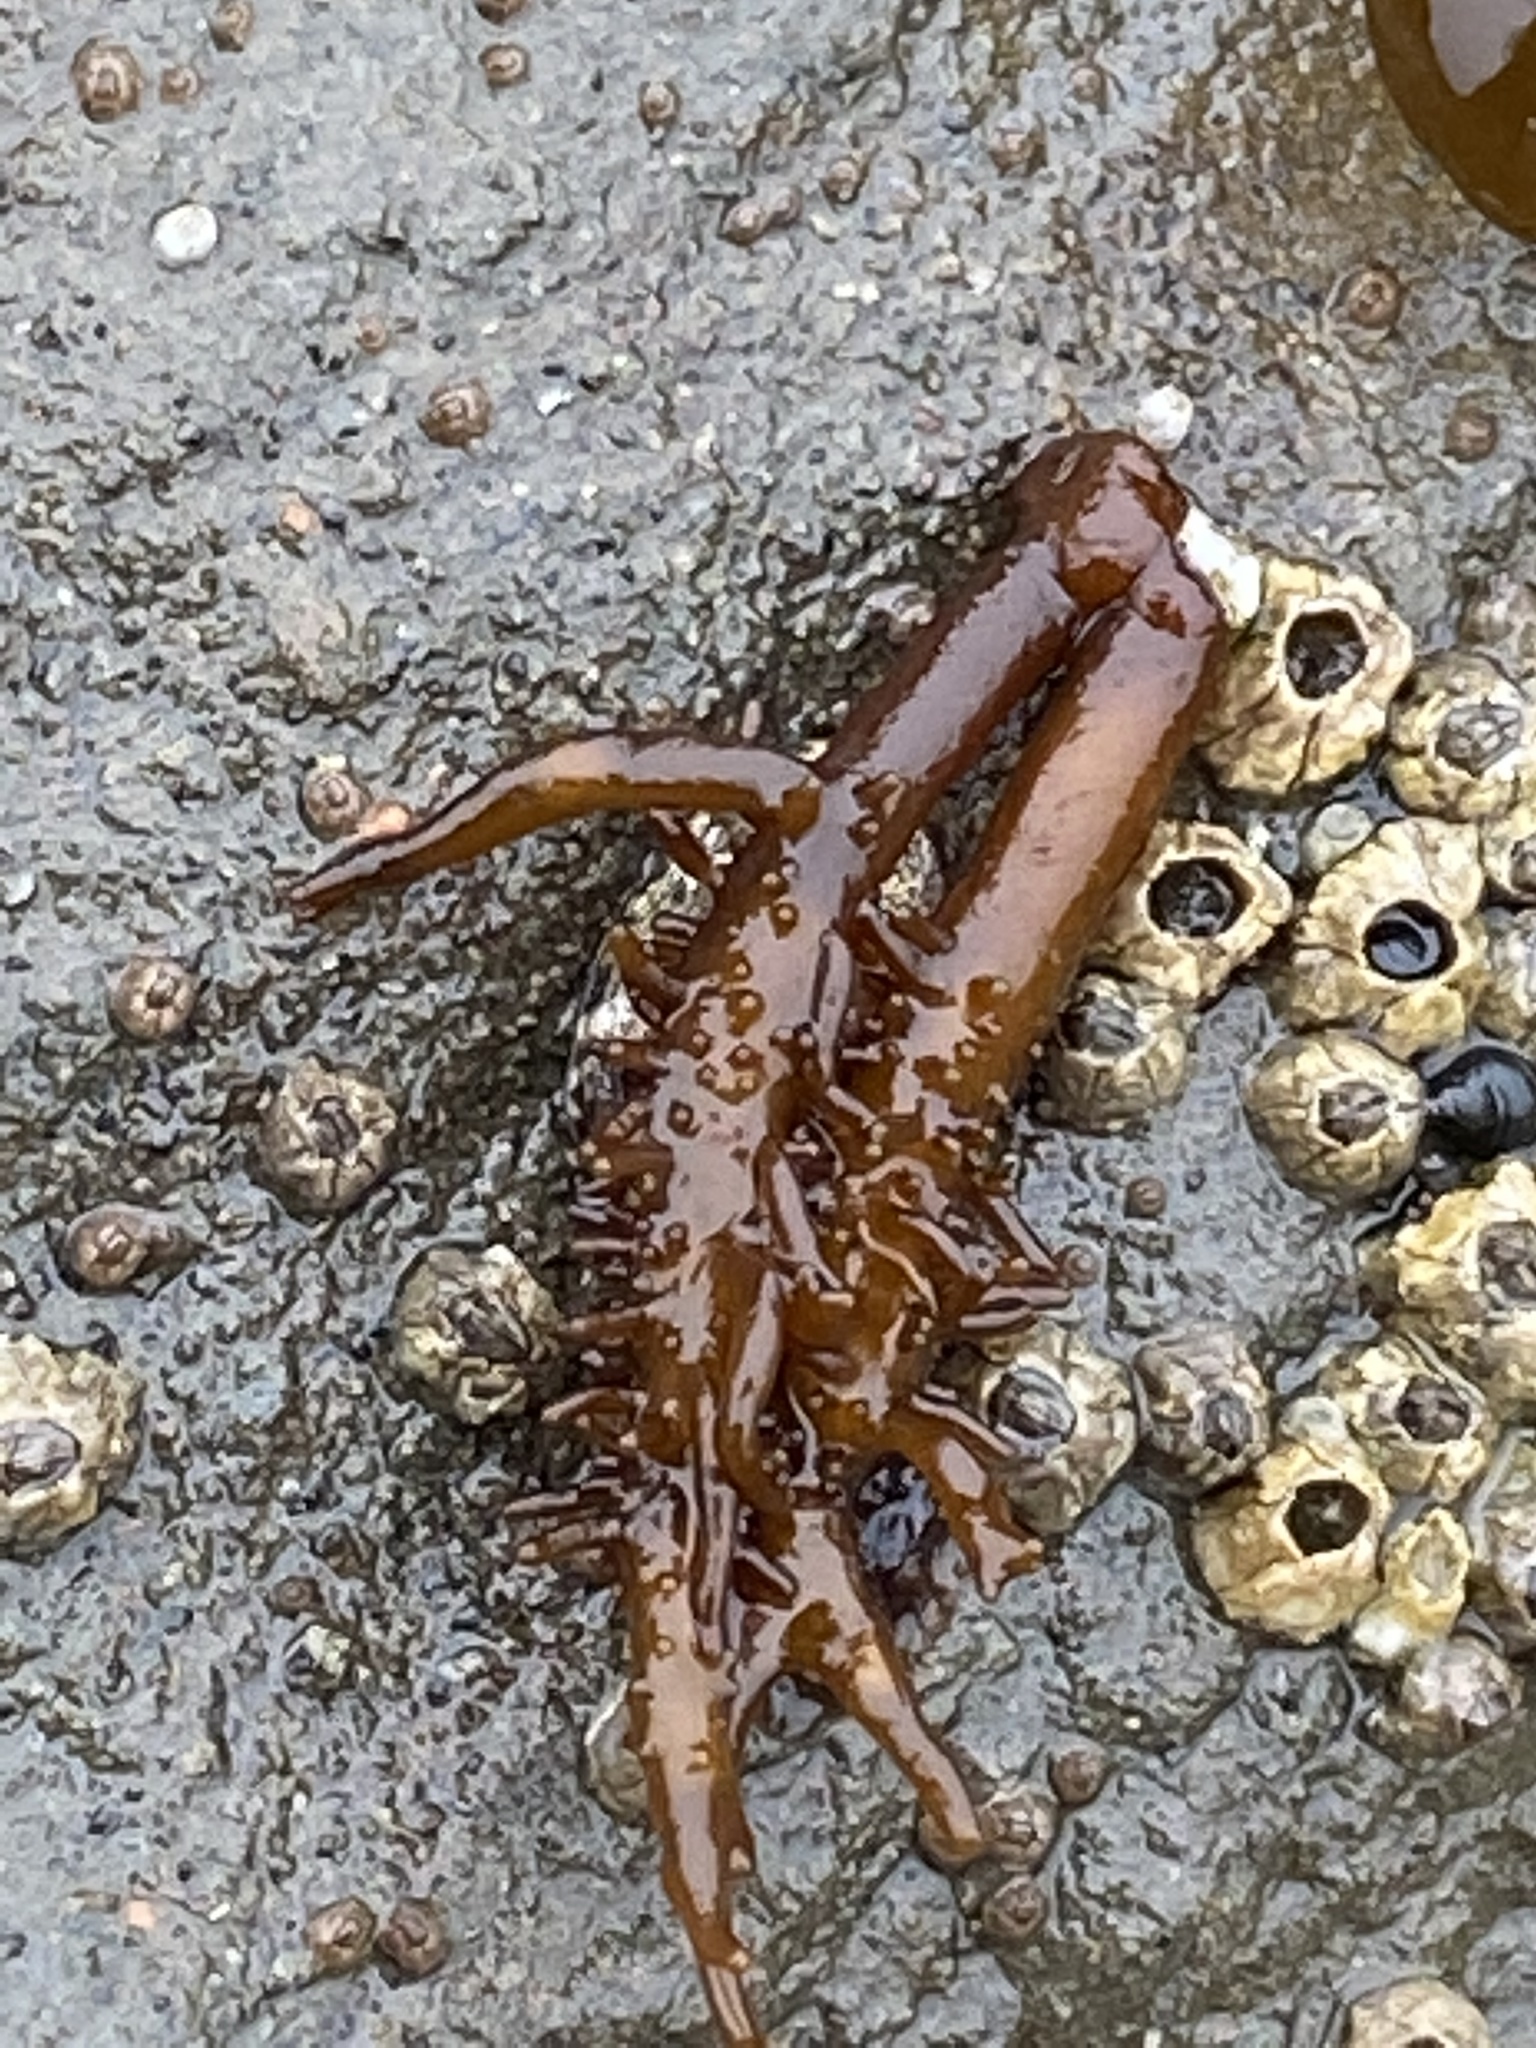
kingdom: Plantae
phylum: Rhodophyta
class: Florideophyceae
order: Nemaliales
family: Liagoraceae
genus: Cumagloia
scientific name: Cumagloia andersonii
